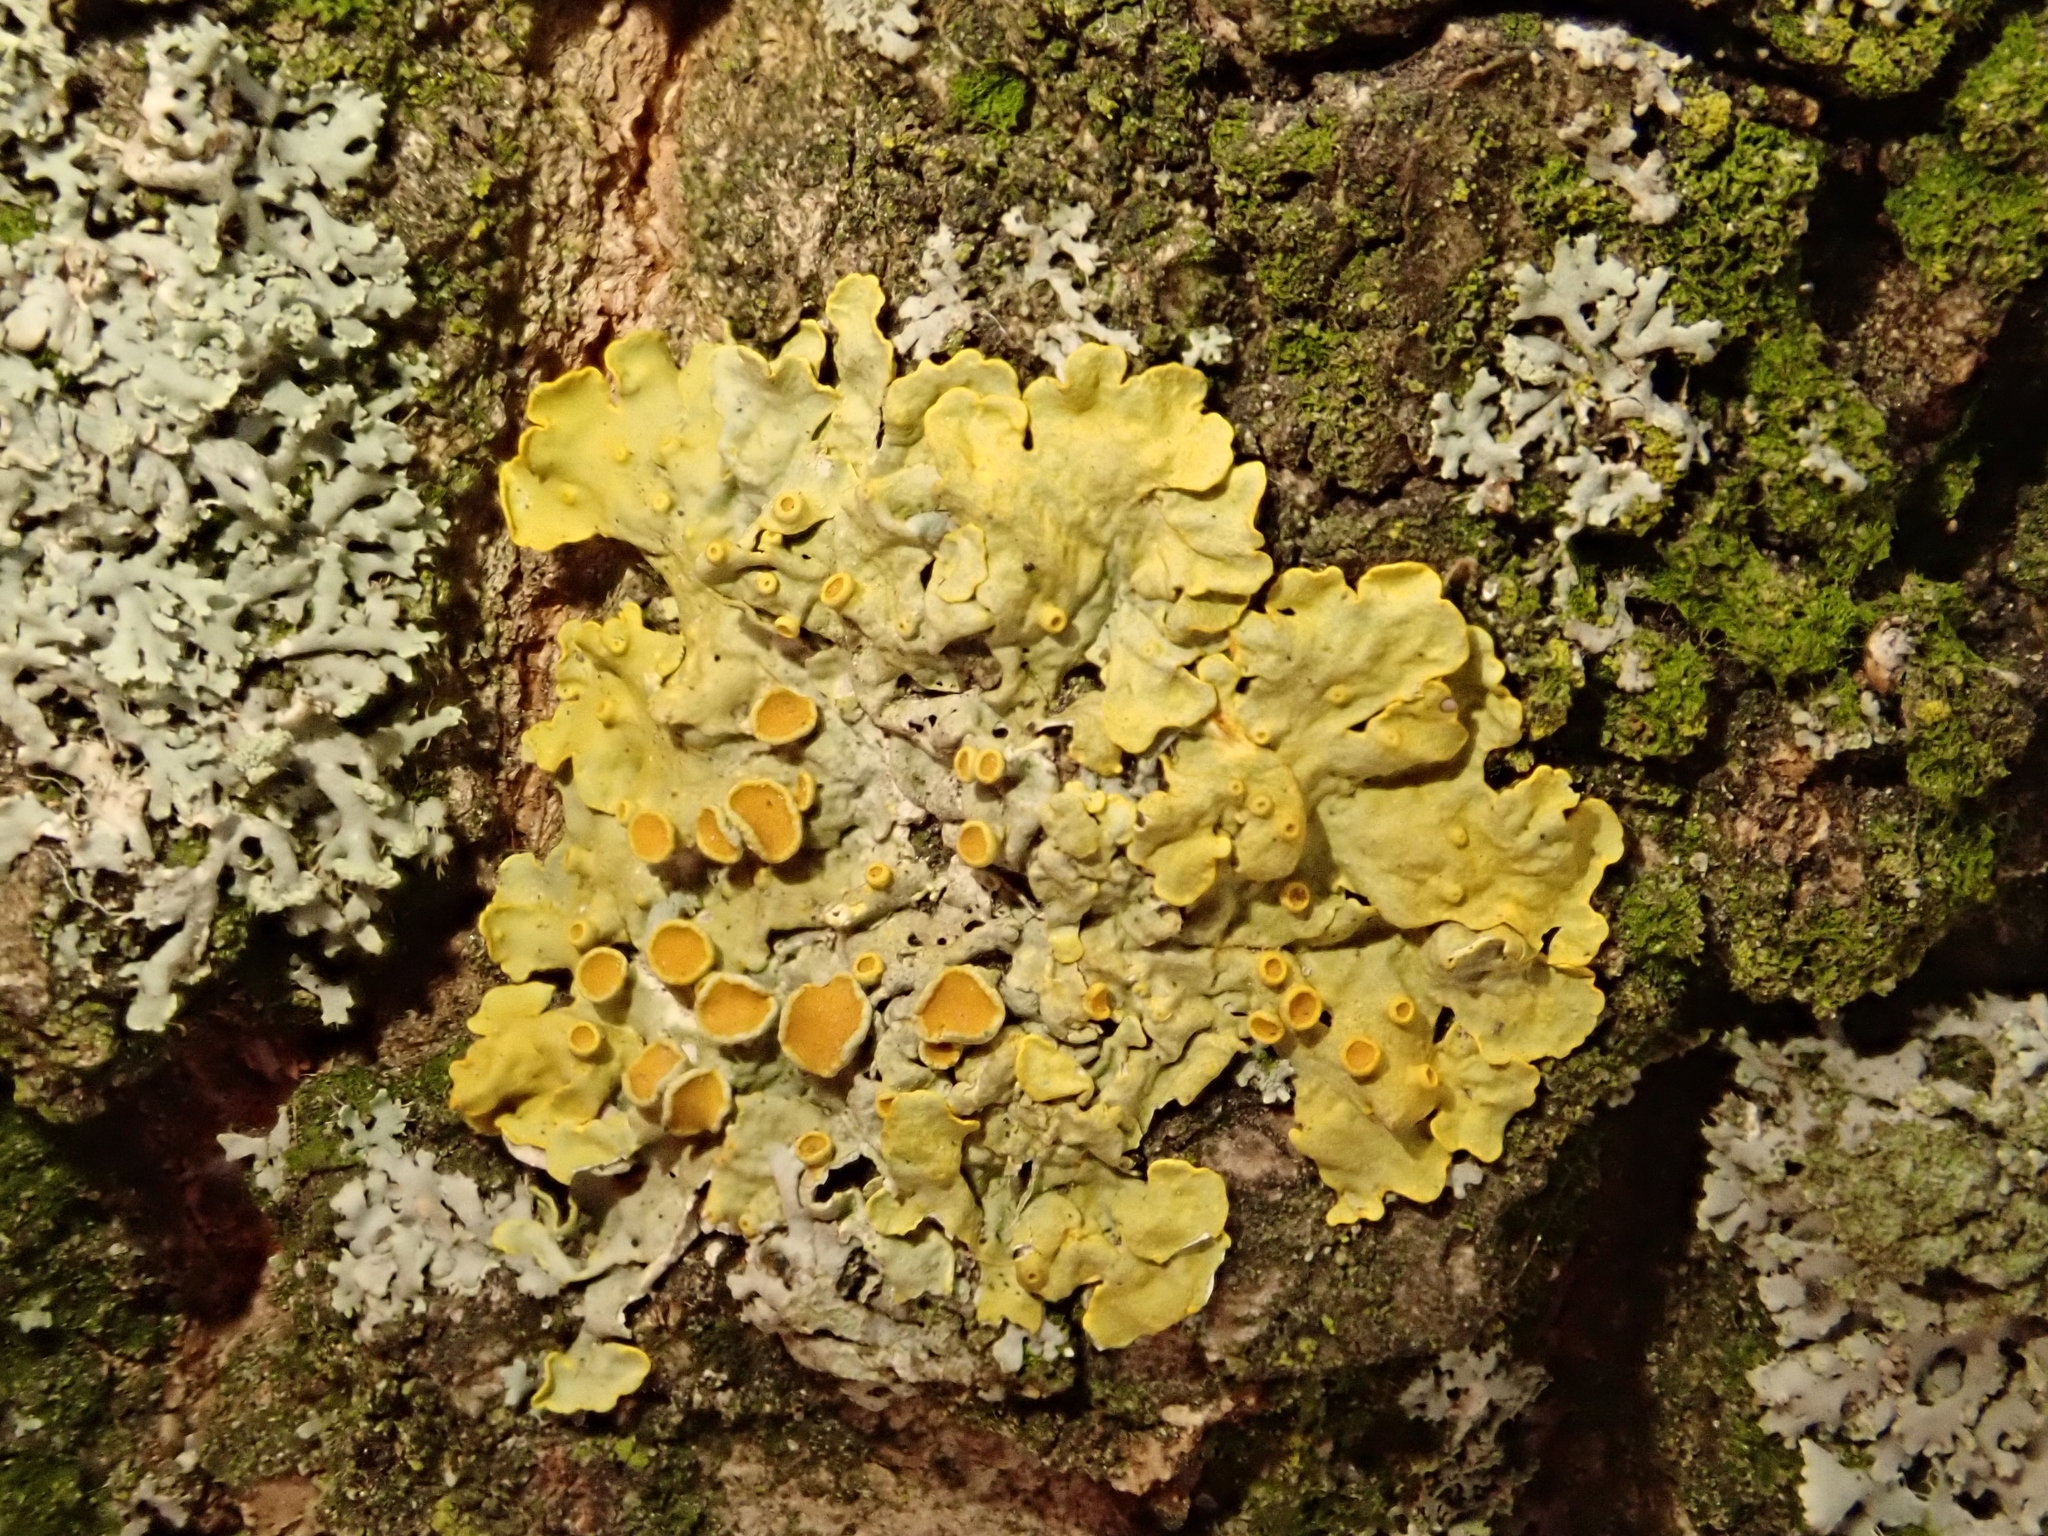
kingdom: Fungi
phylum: Ascomycota
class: Lecanoromycetes
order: Teloschistales
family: Teloschistaceae
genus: Xanthoria
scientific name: Xanthoria parietina
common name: Common orange lichen
